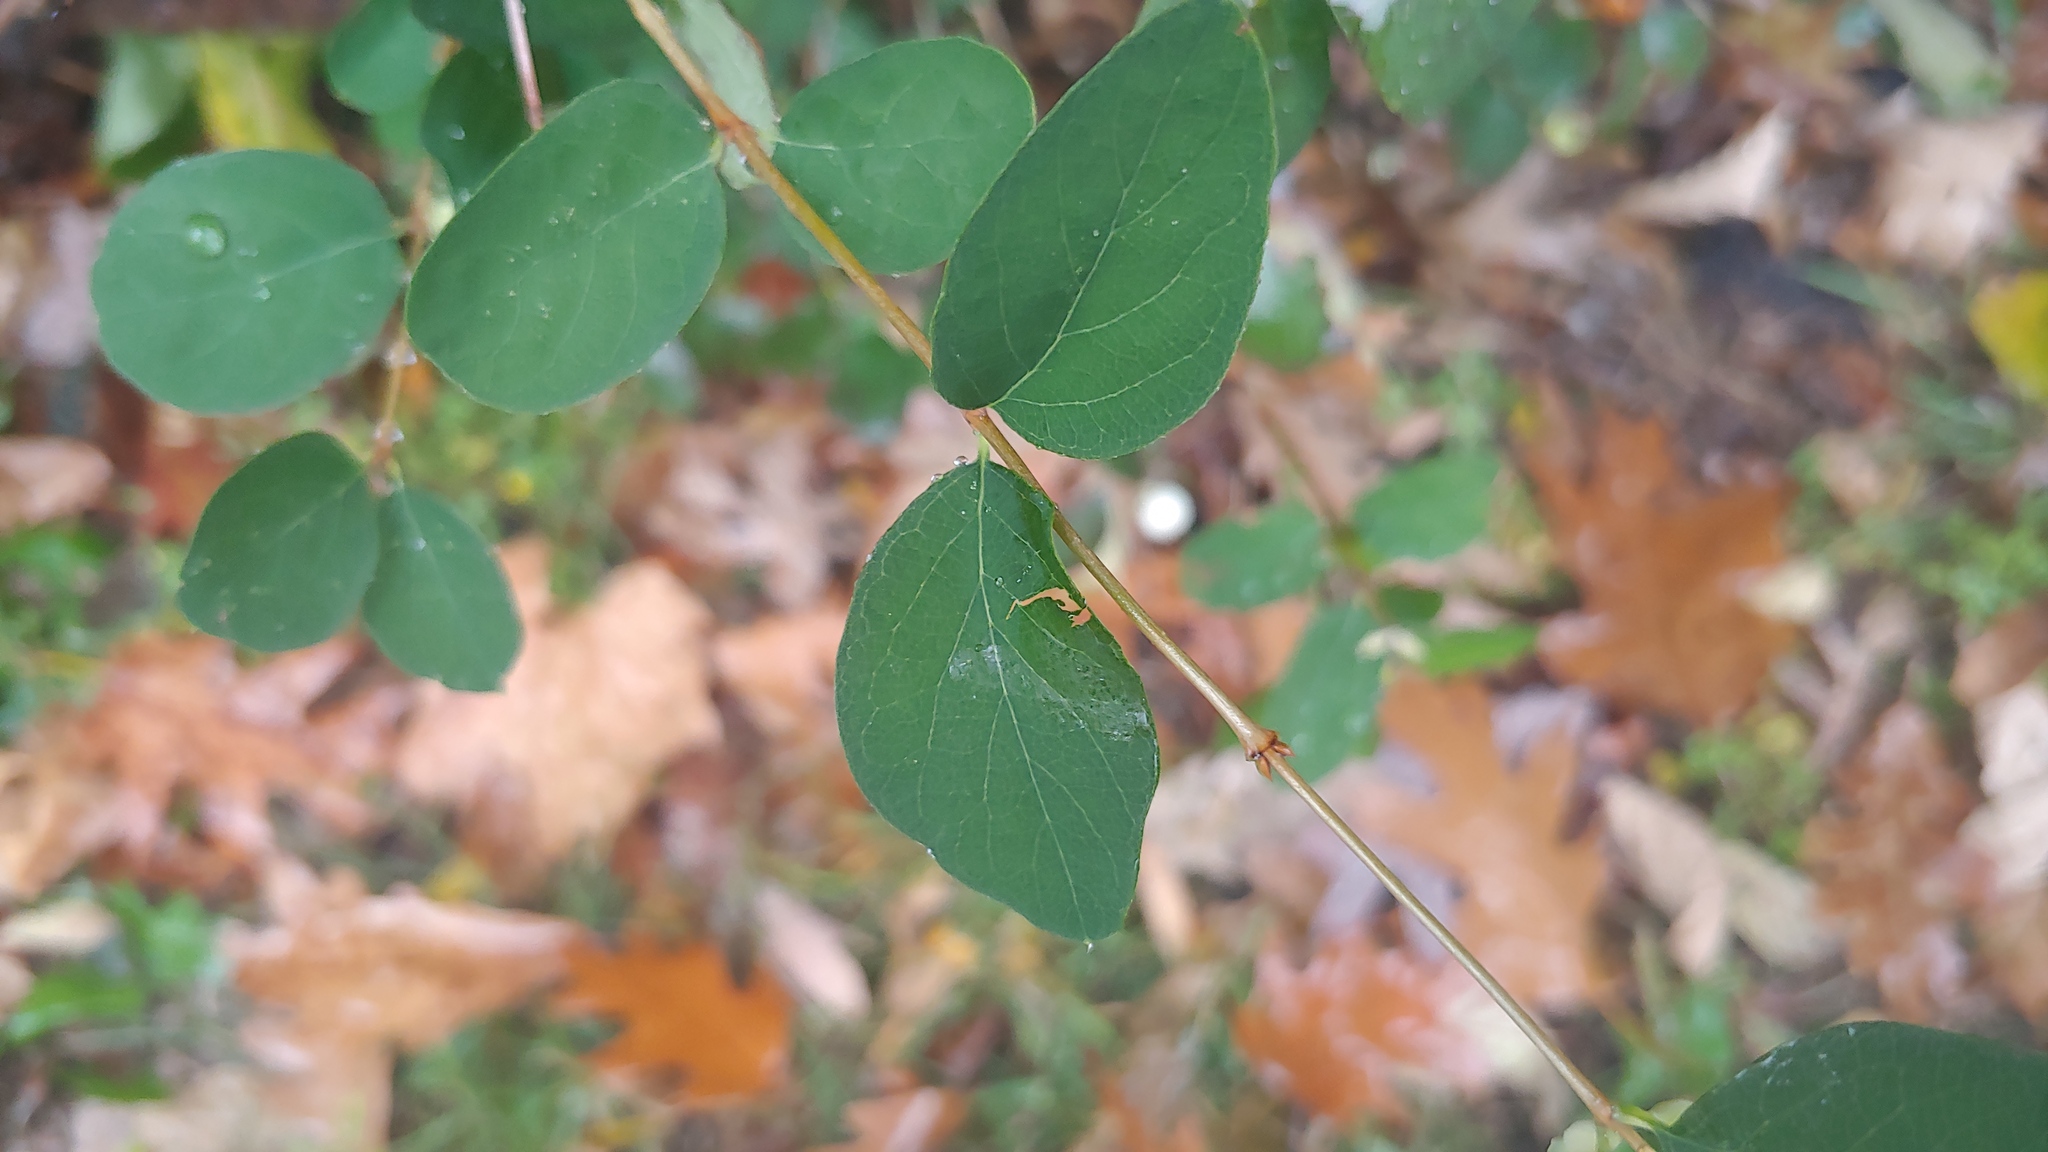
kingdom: Plantae
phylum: Tracheophyta
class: Magnoliopsida
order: Dipsacales
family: Caprifoliaceae
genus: Symphoricarpos
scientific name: Symphoricarpos albus
